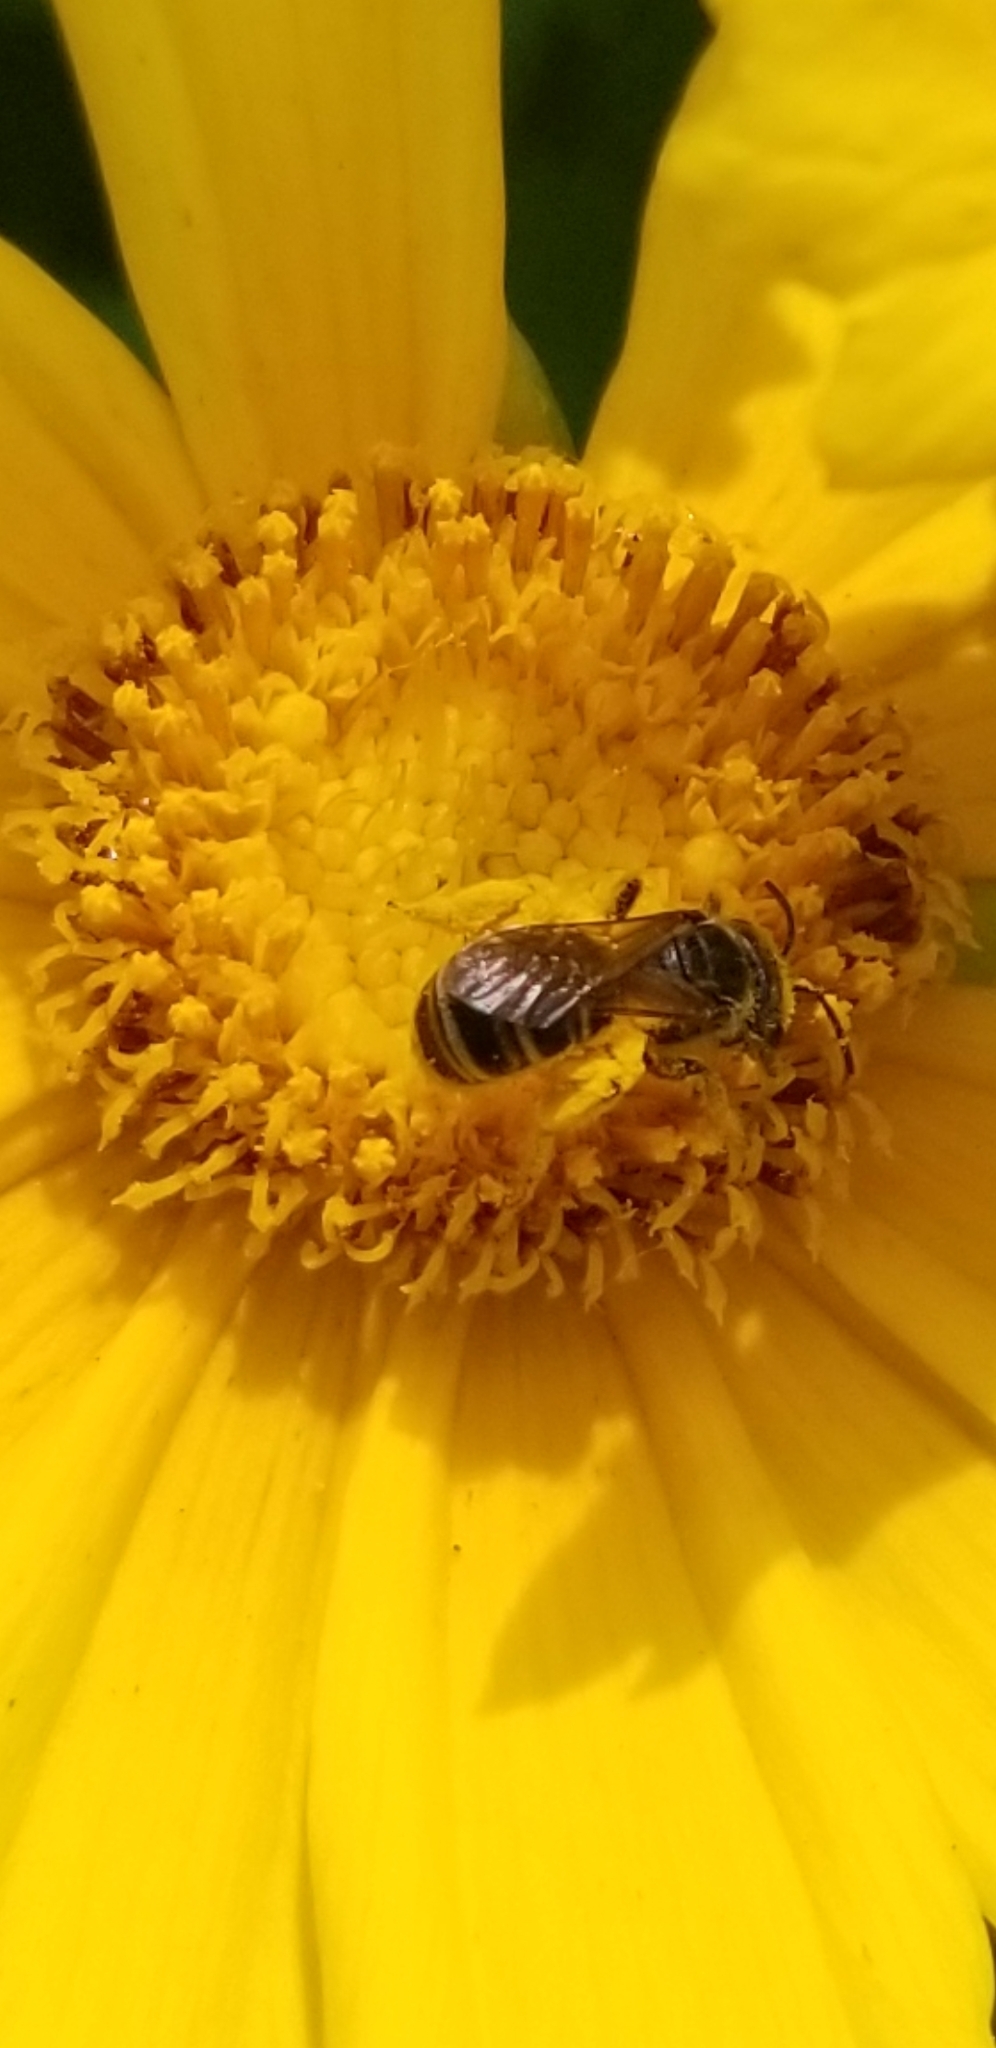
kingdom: Animalia
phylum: Arthropoda
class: Insecta
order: Hymenoptera
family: Halictidae
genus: Halictus
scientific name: Halictus ligatus
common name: Ligated furrow bee
